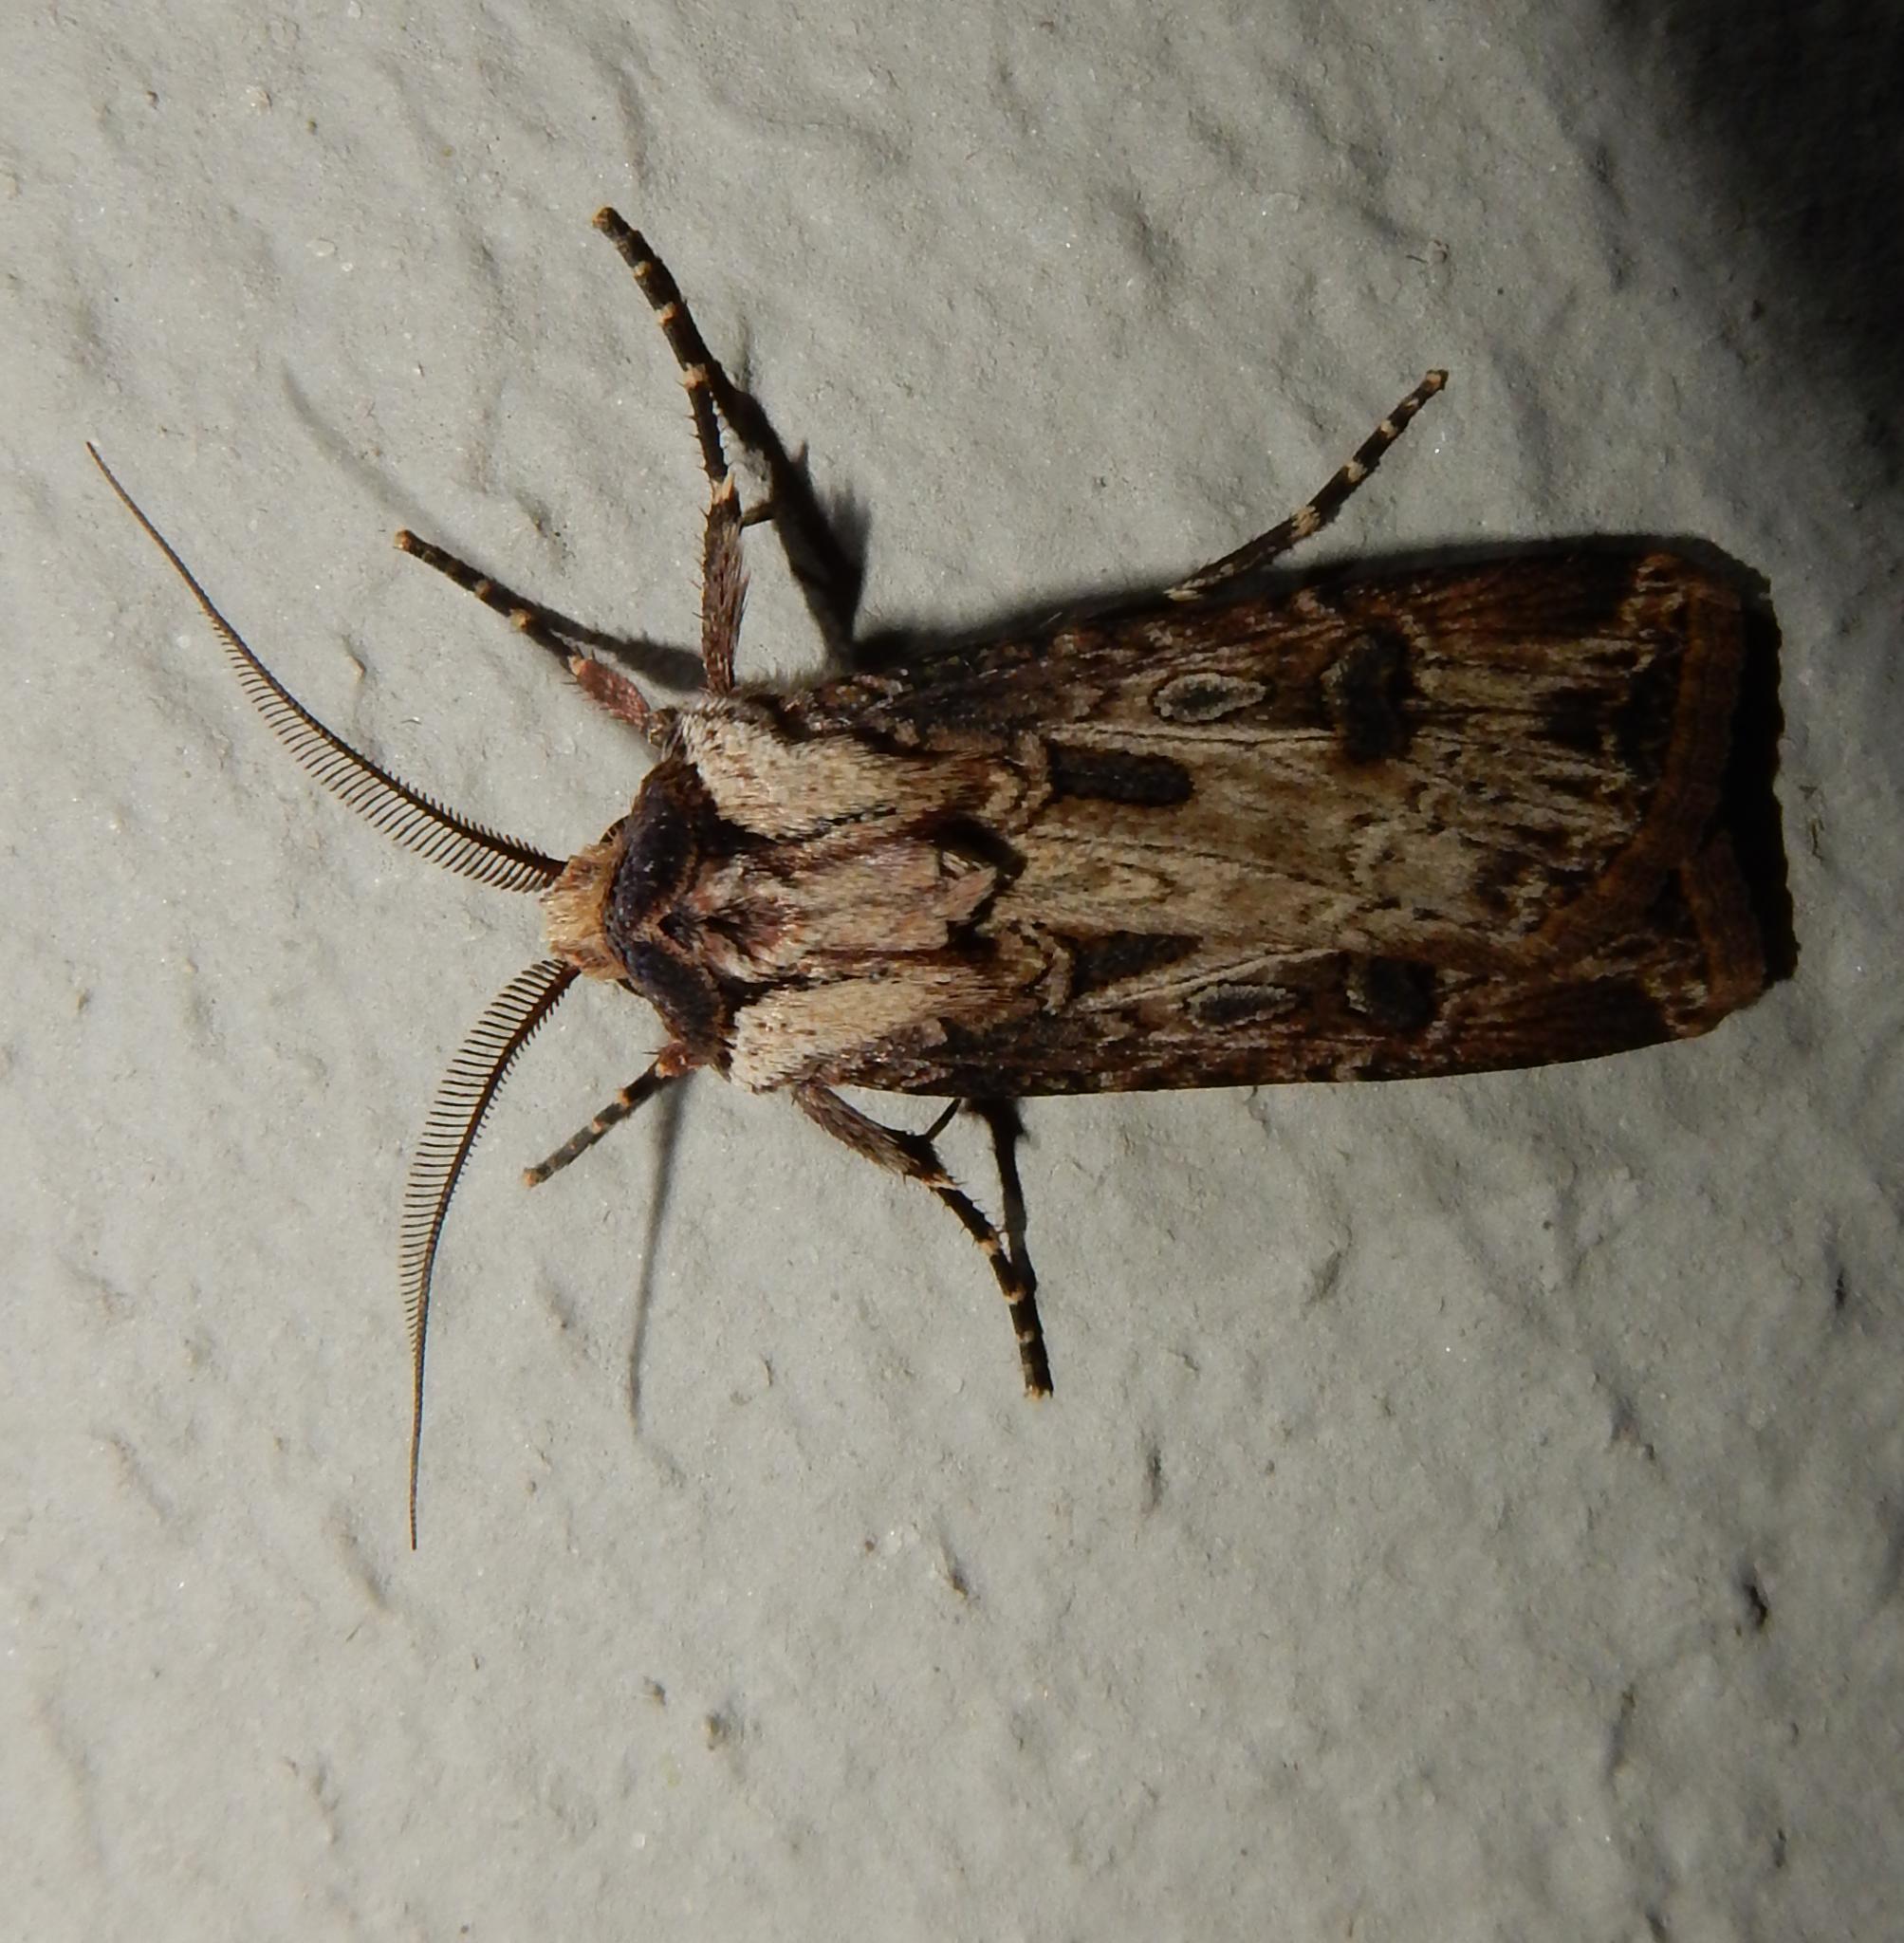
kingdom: Animalia
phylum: Arthropoda
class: Insecta
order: Lepidoptera
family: Noctuidae
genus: Agrotis
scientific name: Agrotis
